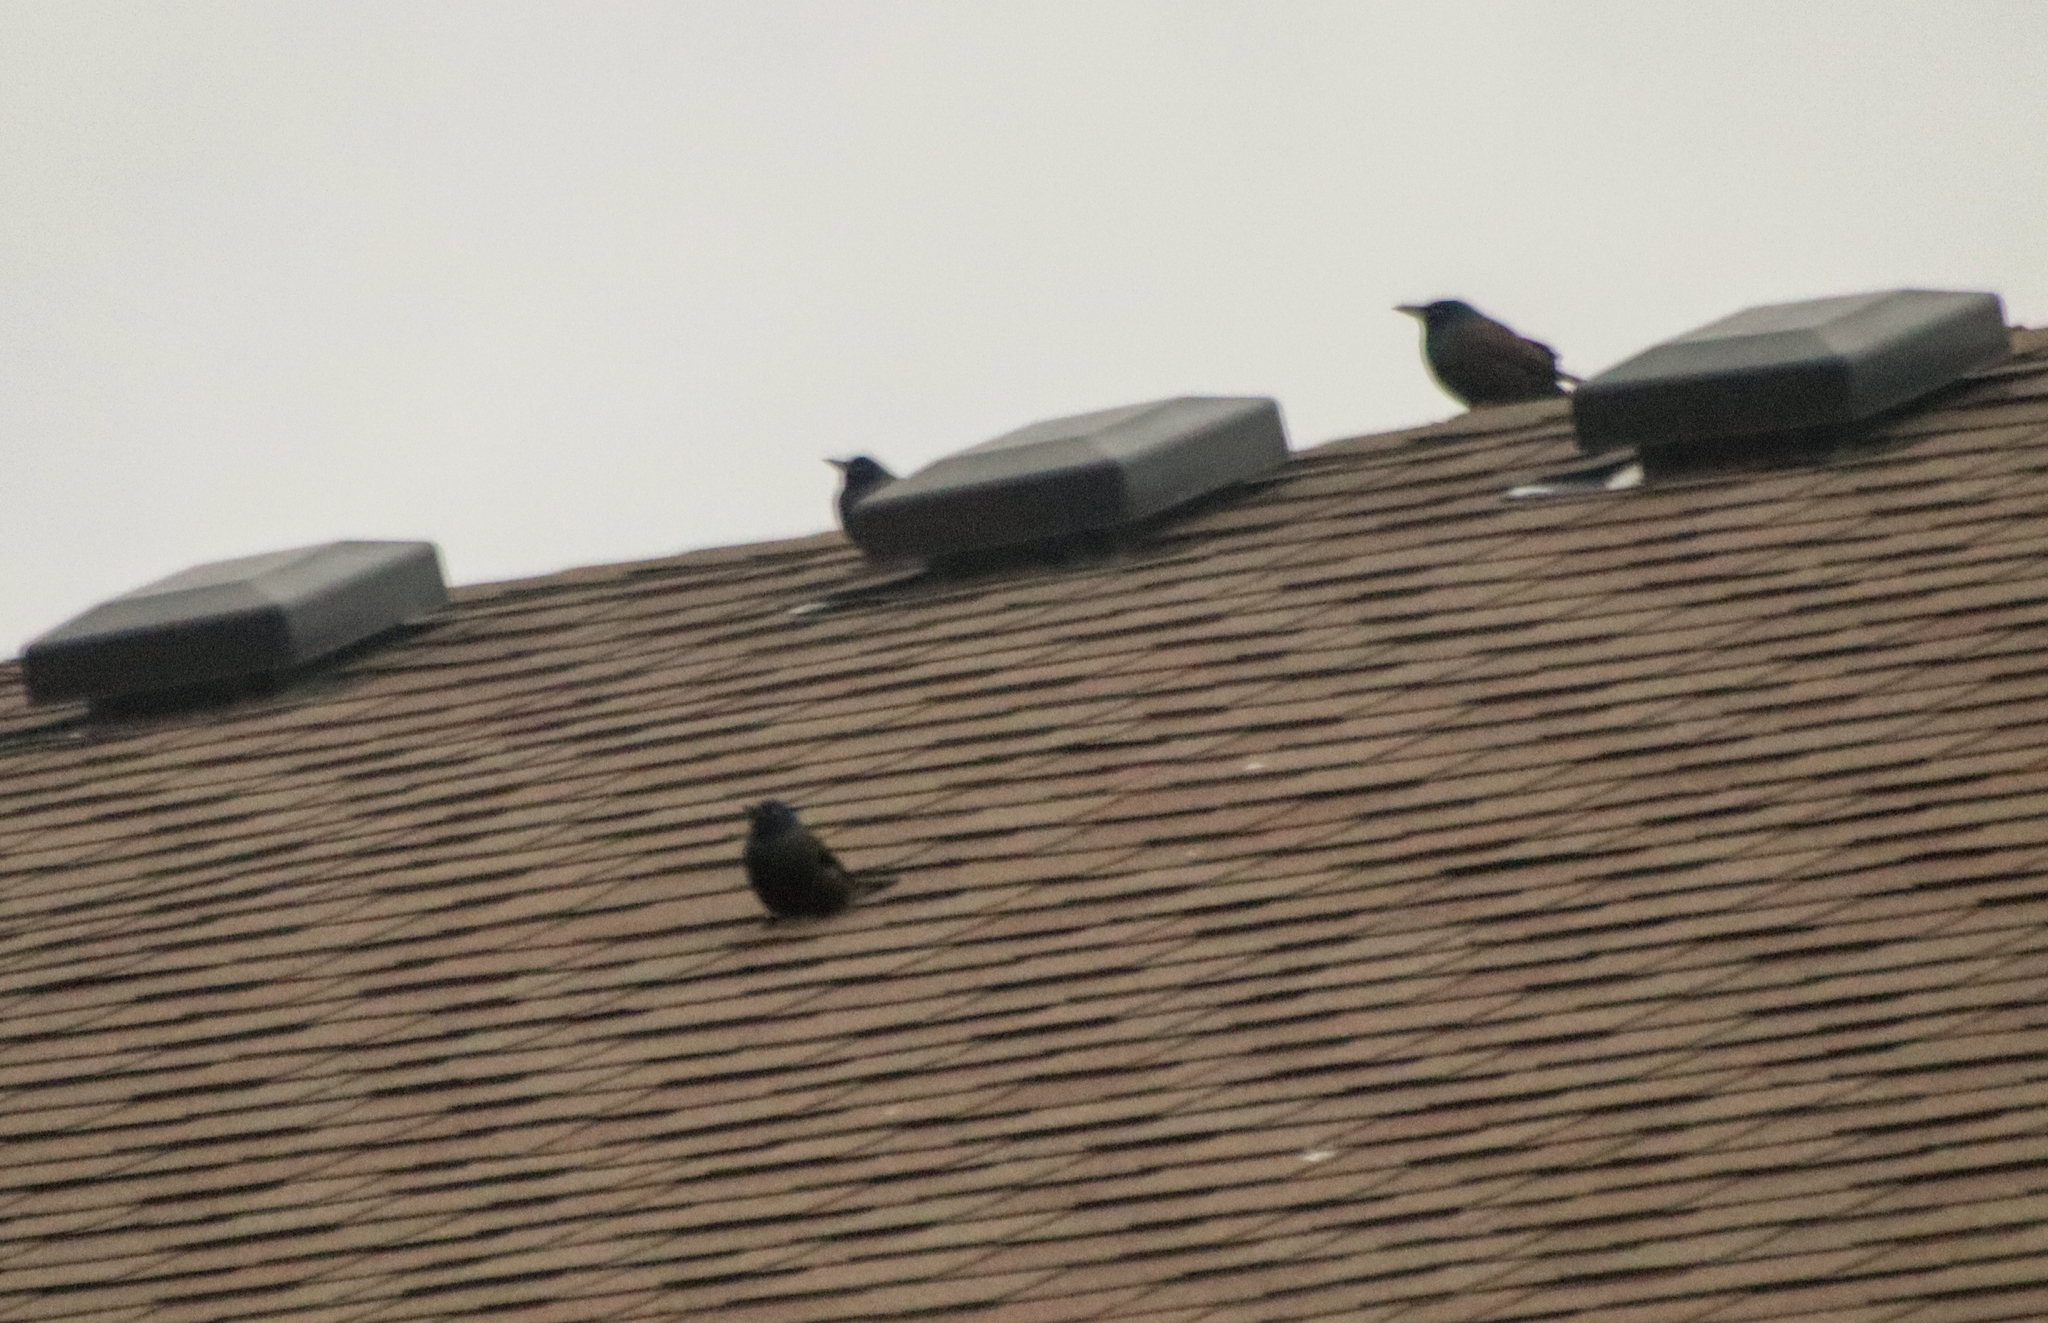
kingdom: Animalia
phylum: Chordata
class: Aves
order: Passeriformes
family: Icteridae
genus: Quiscalus
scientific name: Quiscalus quiscula
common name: Common grackle
